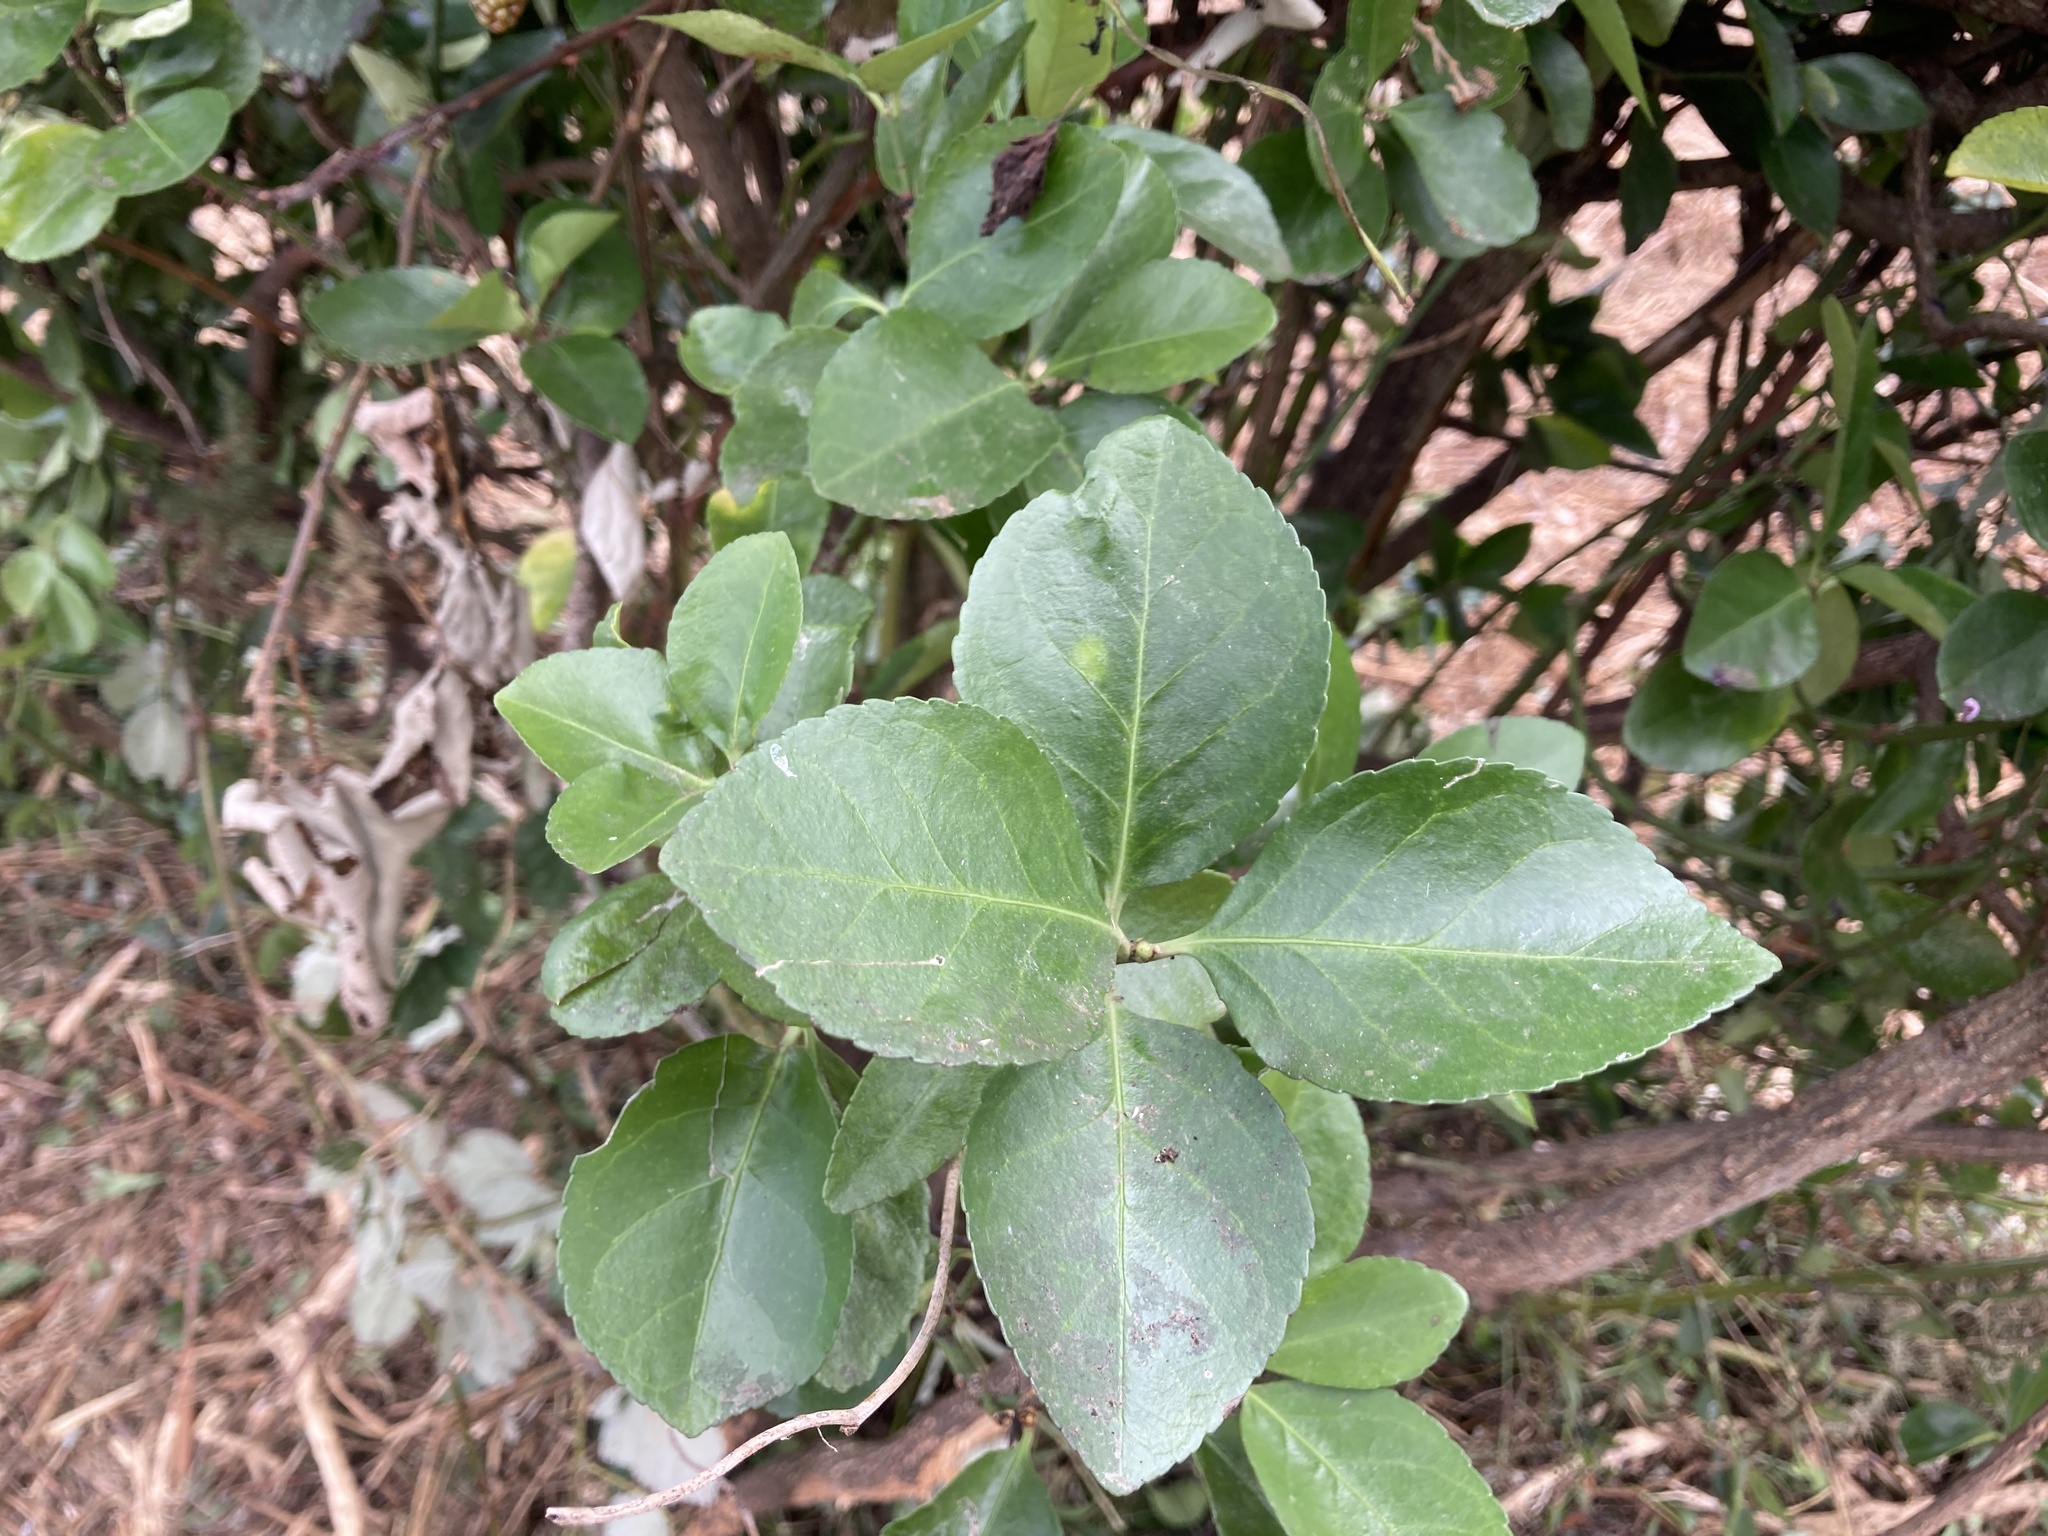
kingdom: Plantae
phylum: Tracheophyta
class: Magnoliopsida
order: Celastrales
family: Celastraceae
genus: Euonymus
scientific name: Euonymus japonicus
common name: Japanese spindletree
